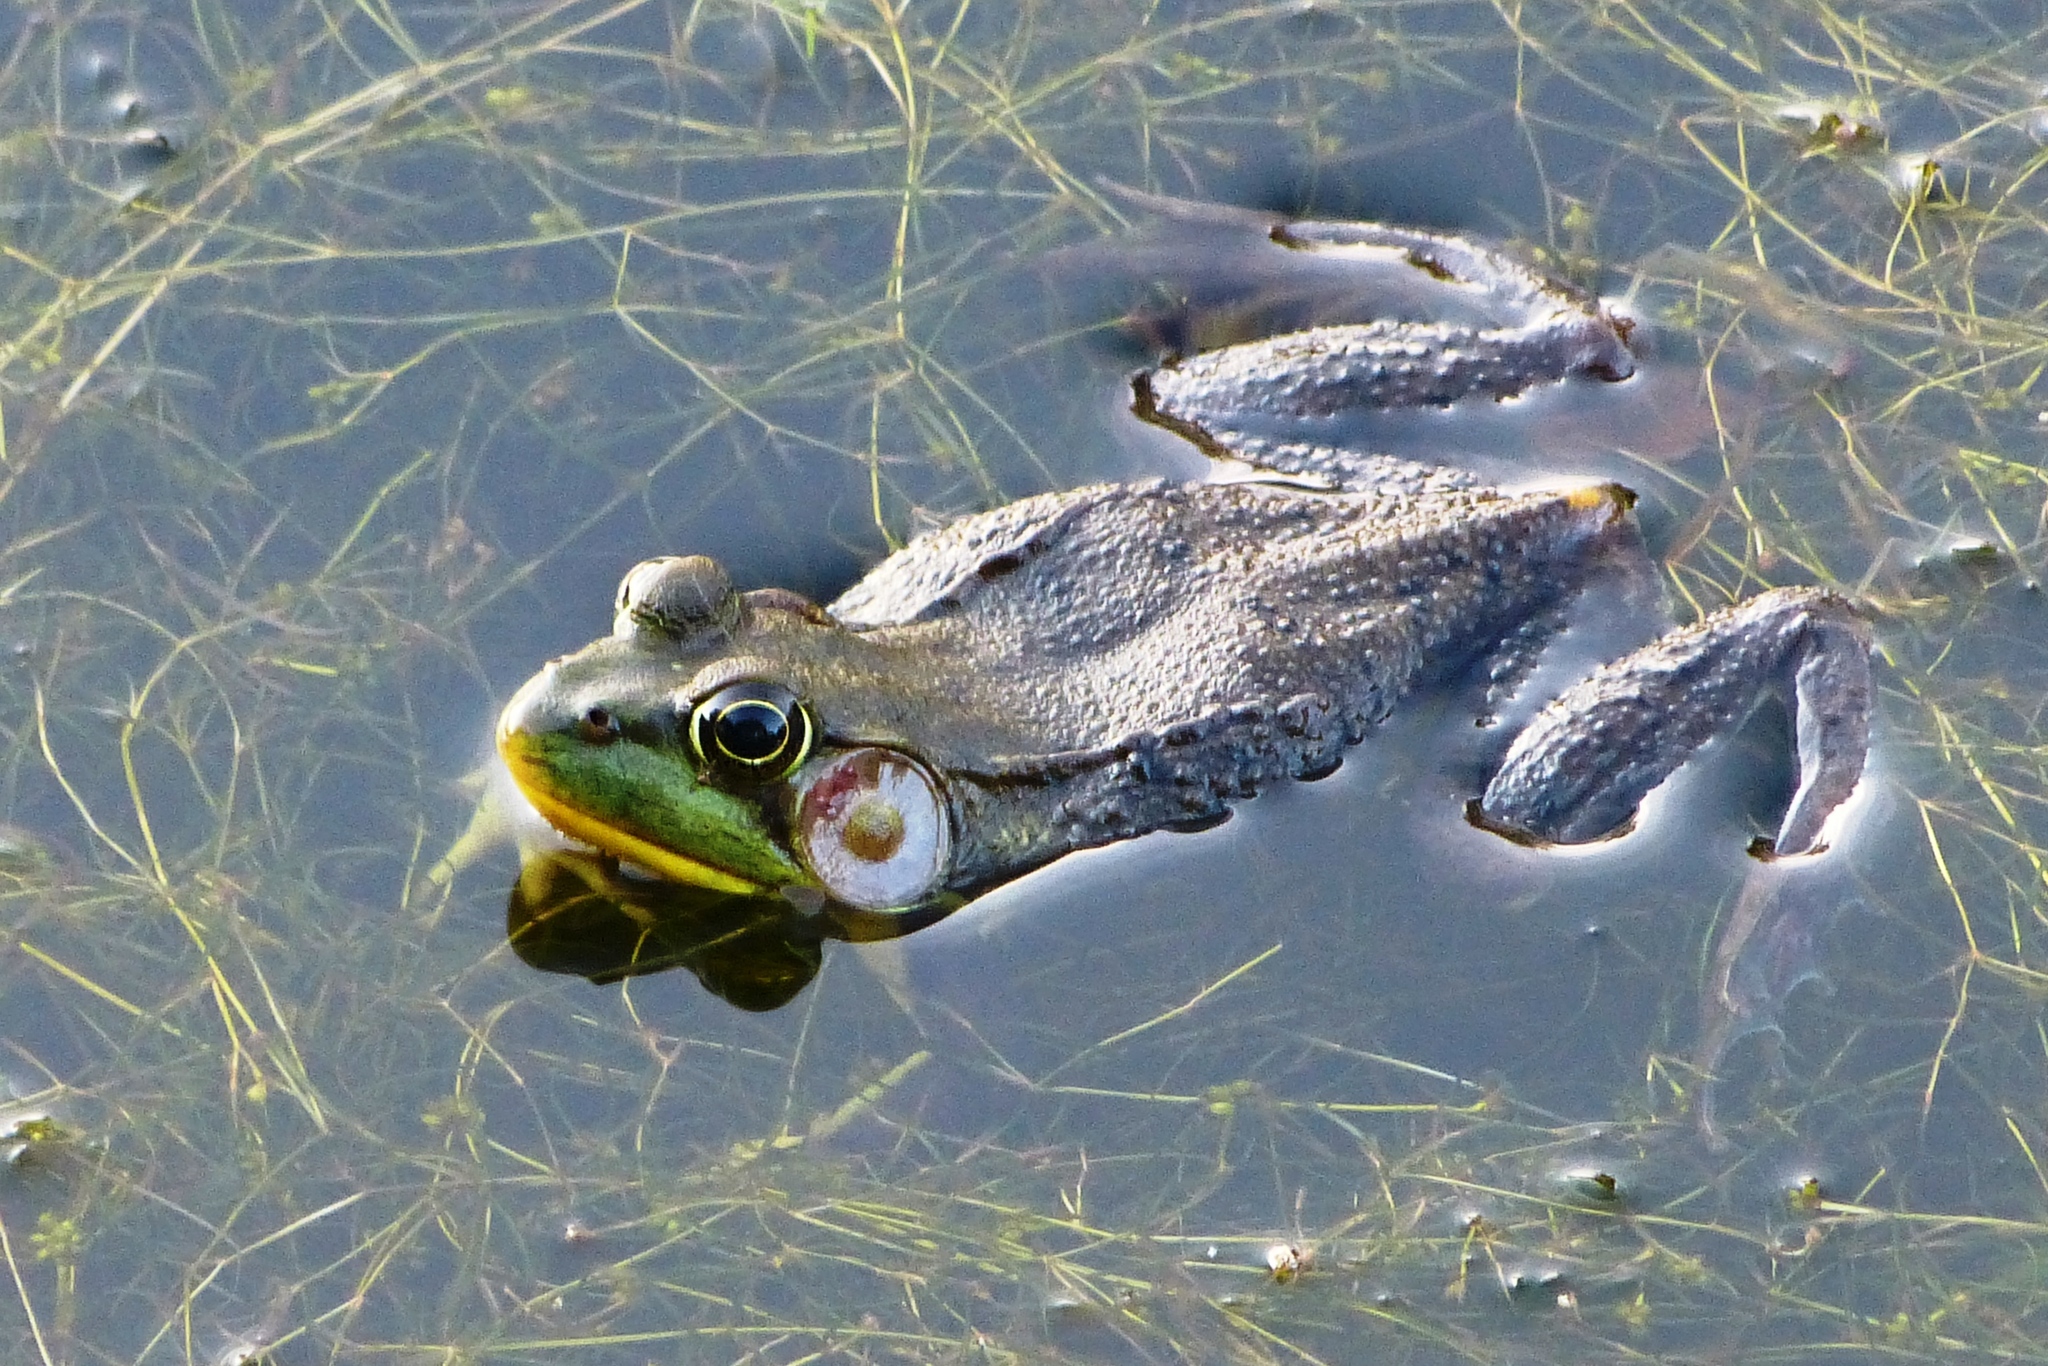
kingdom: Animalia
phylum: Chordata
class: Amphibia
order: Anura
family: Ranidae
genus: Lithobates
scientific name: Lithobates clamitans
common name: Green frog
